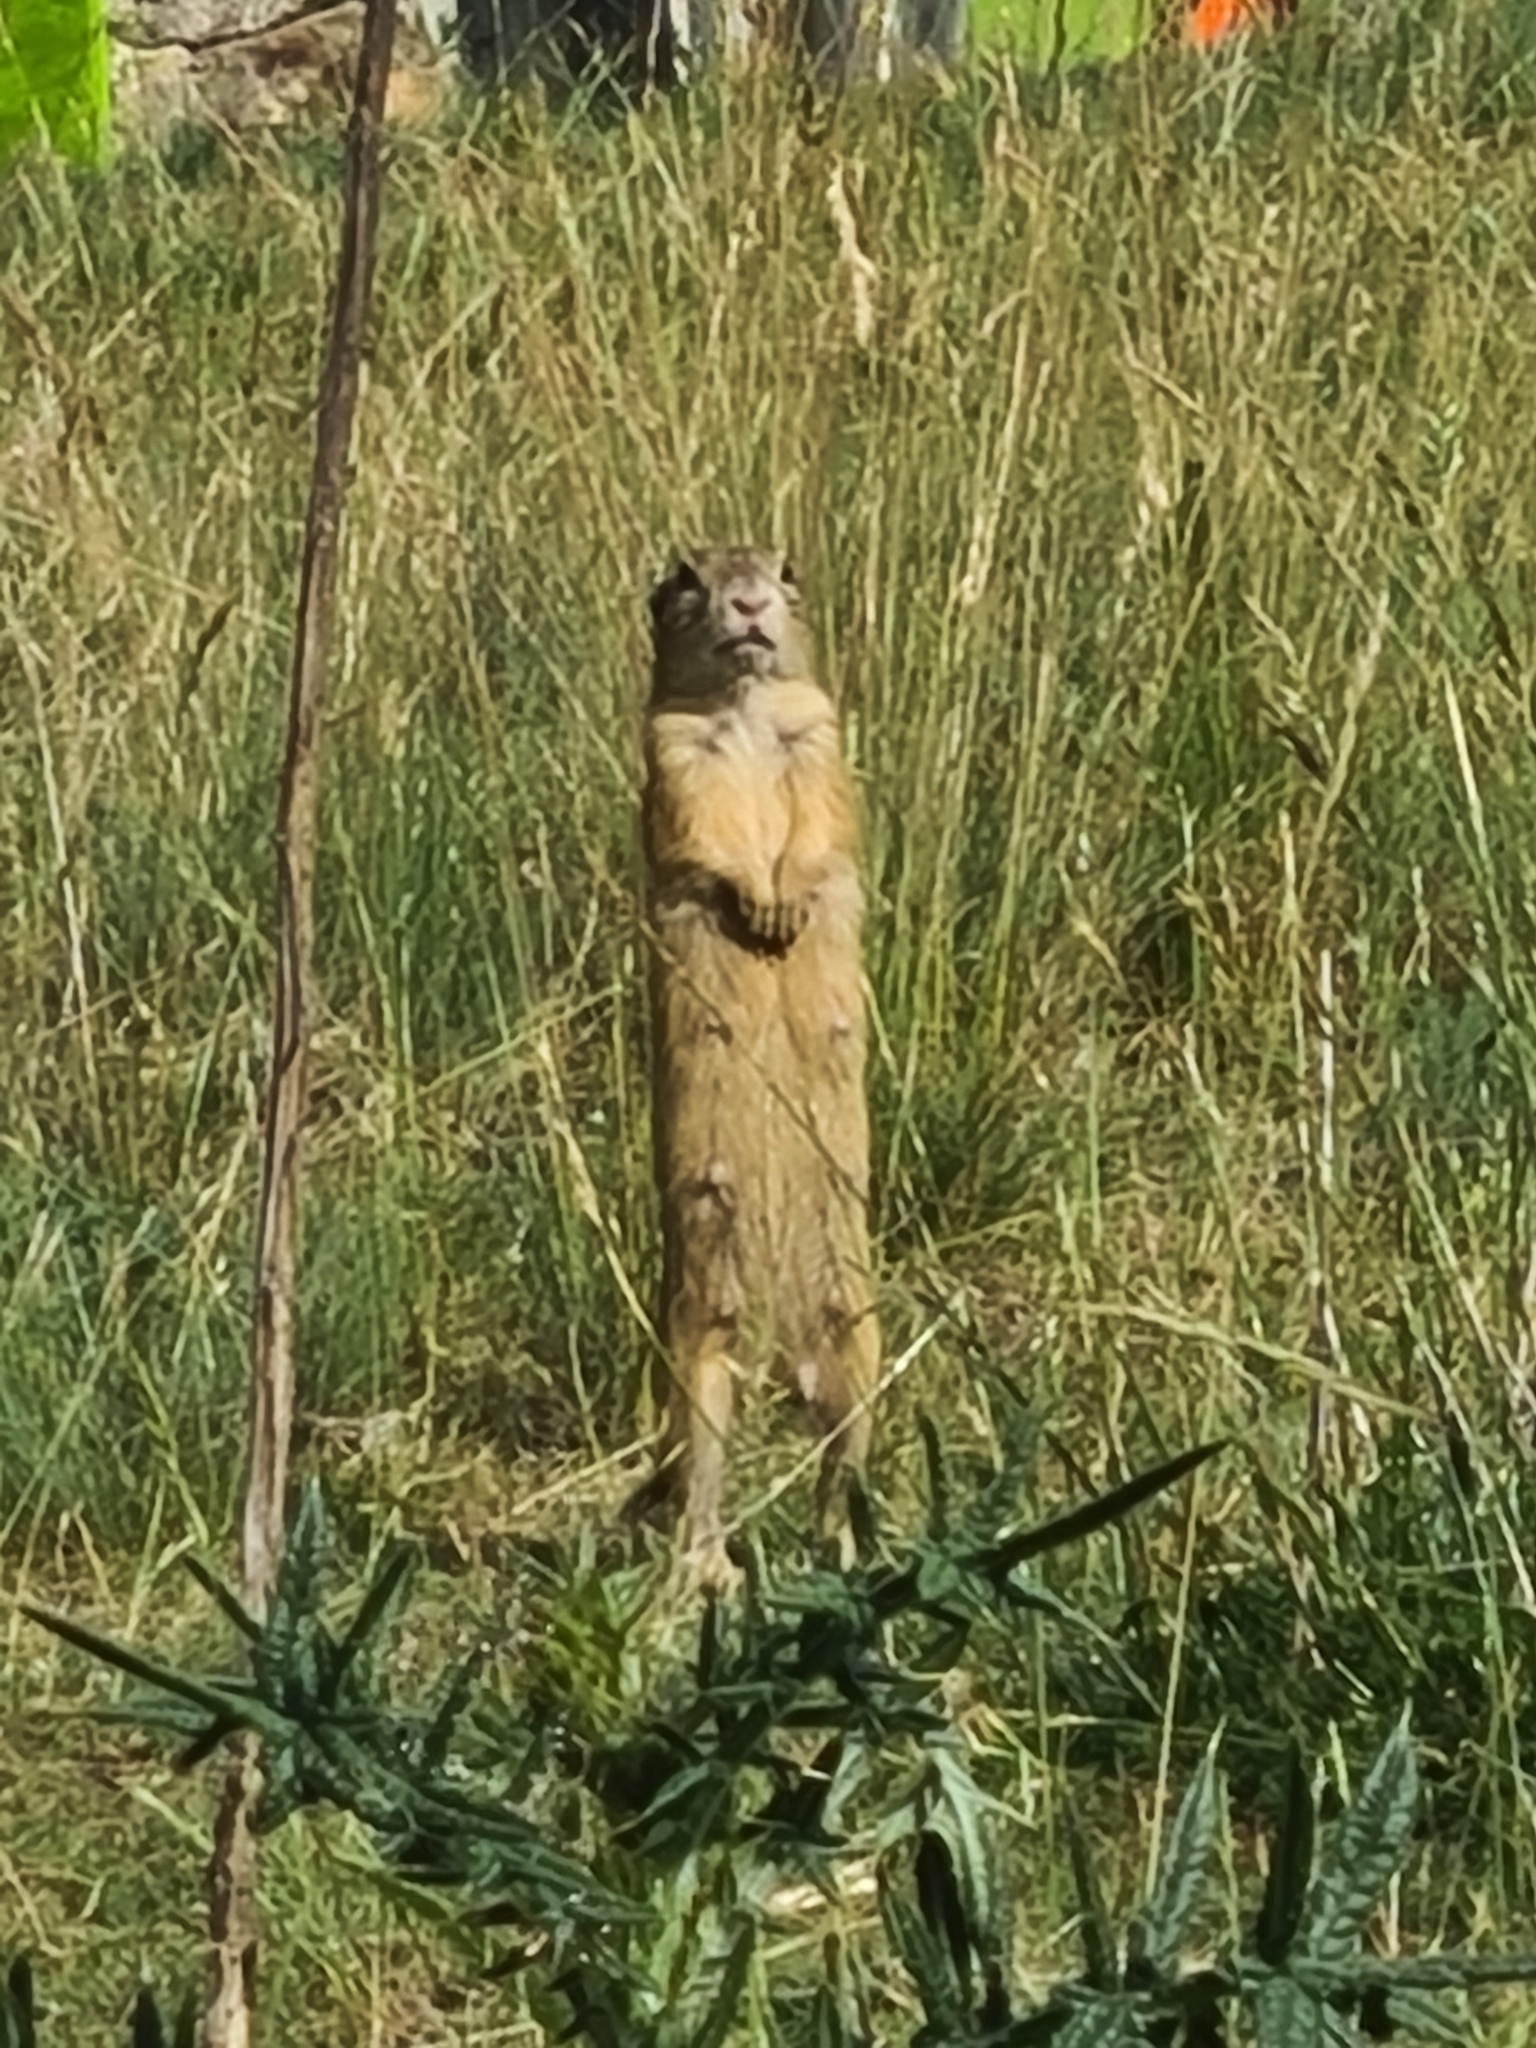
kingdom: Animalia
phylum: Chordata
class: Mammalia
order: Rodentia
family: Sciuridae
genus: Spermophilus
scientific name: Spermophilus citellus
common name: European ground squirrel
